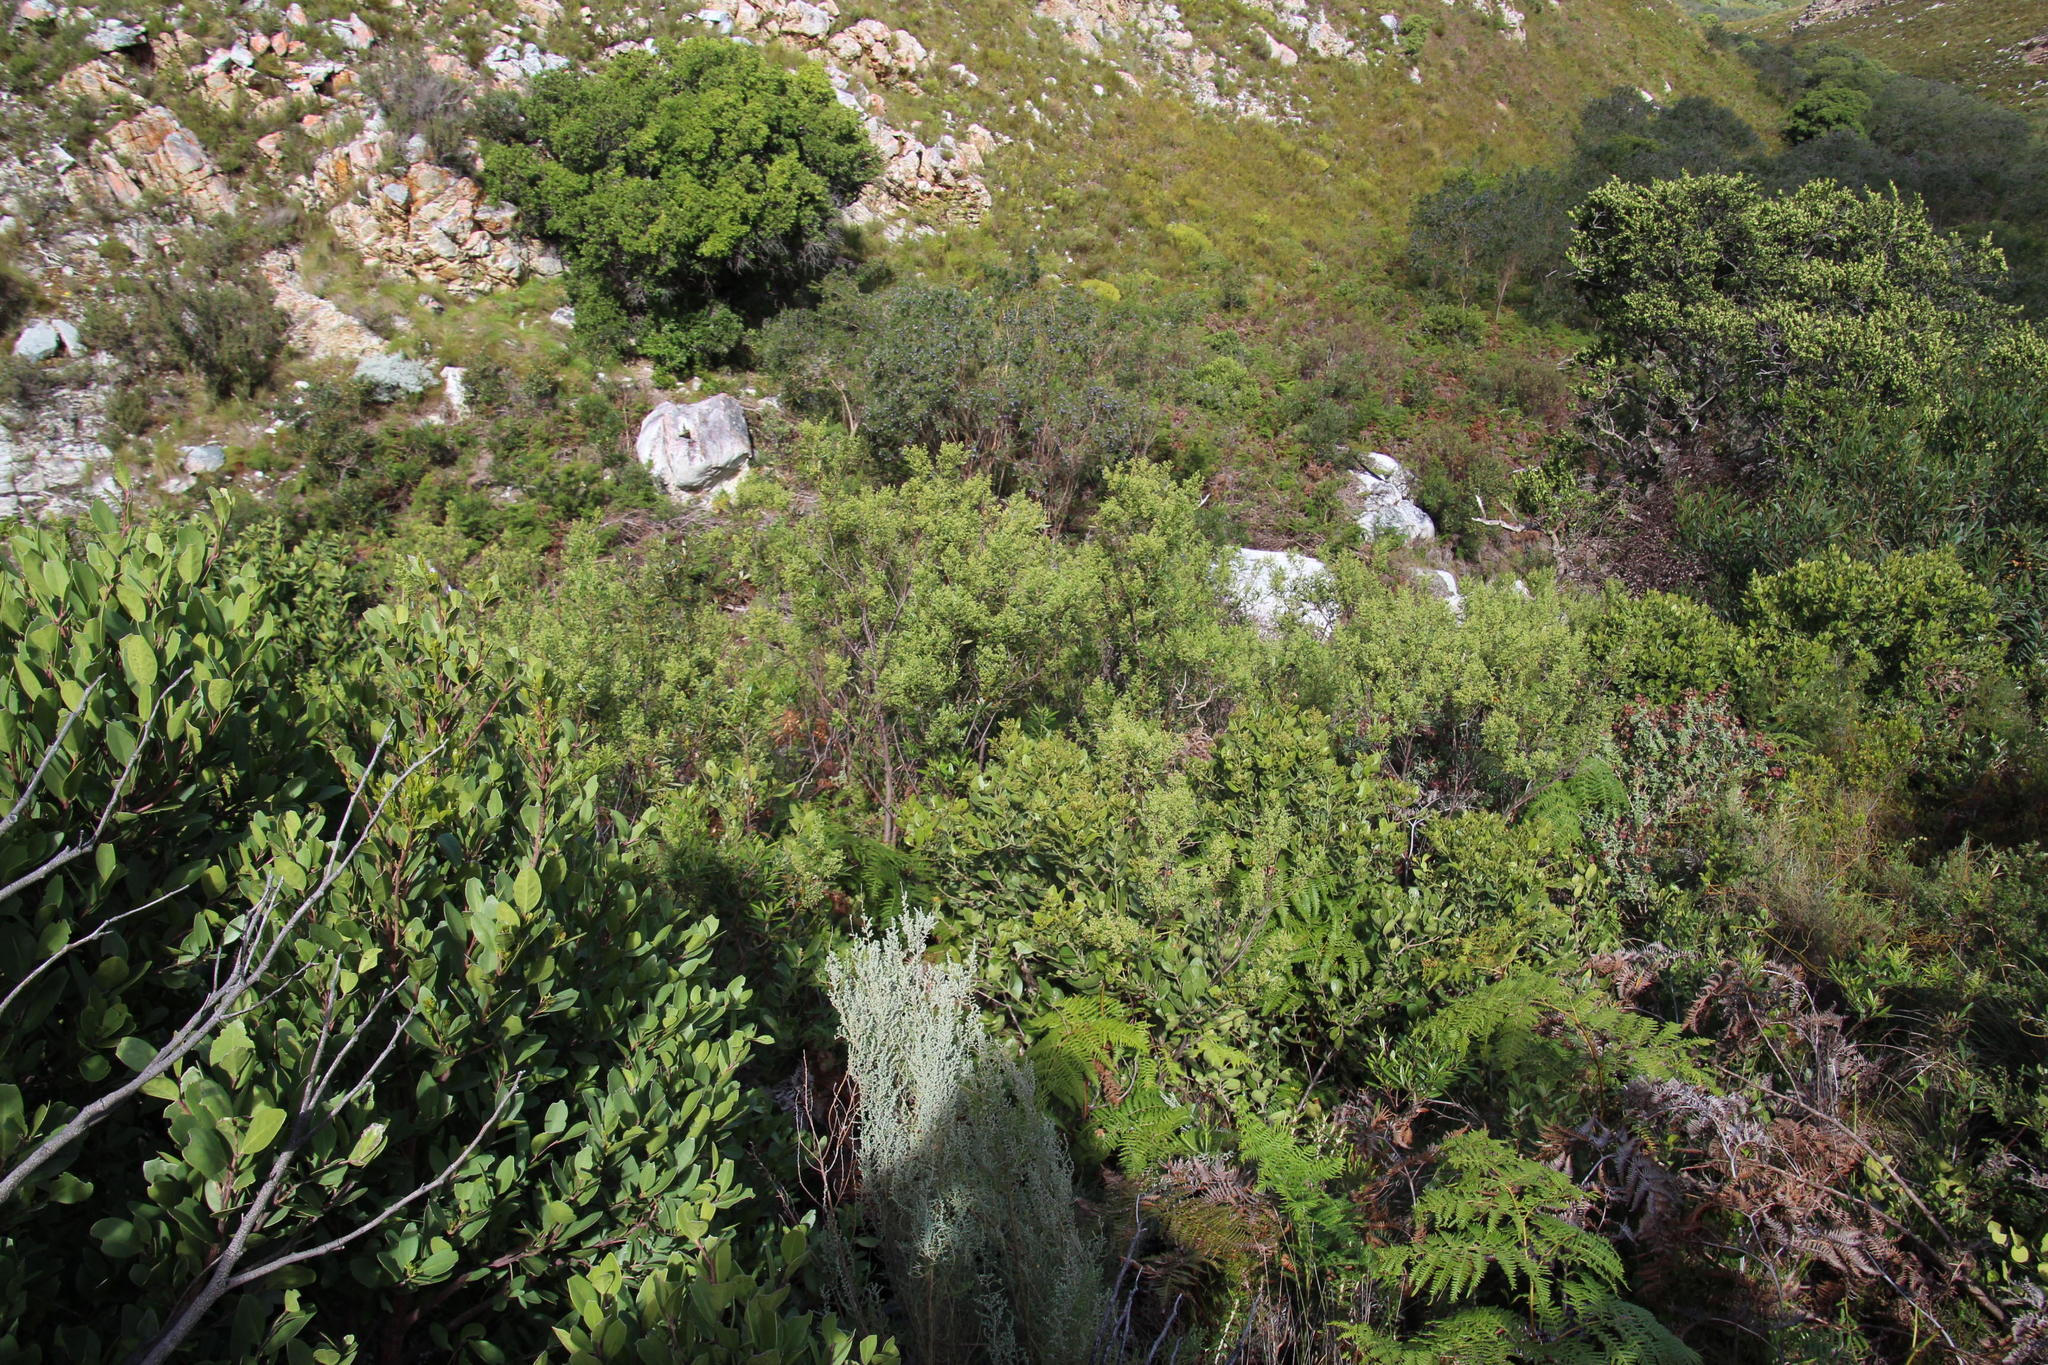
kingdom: Plantae
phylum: Tracheophyta
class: Magnoliopsida
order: Sapindales
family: Anacardiaceae
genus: Searsia
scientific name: Searsia angustifolia
